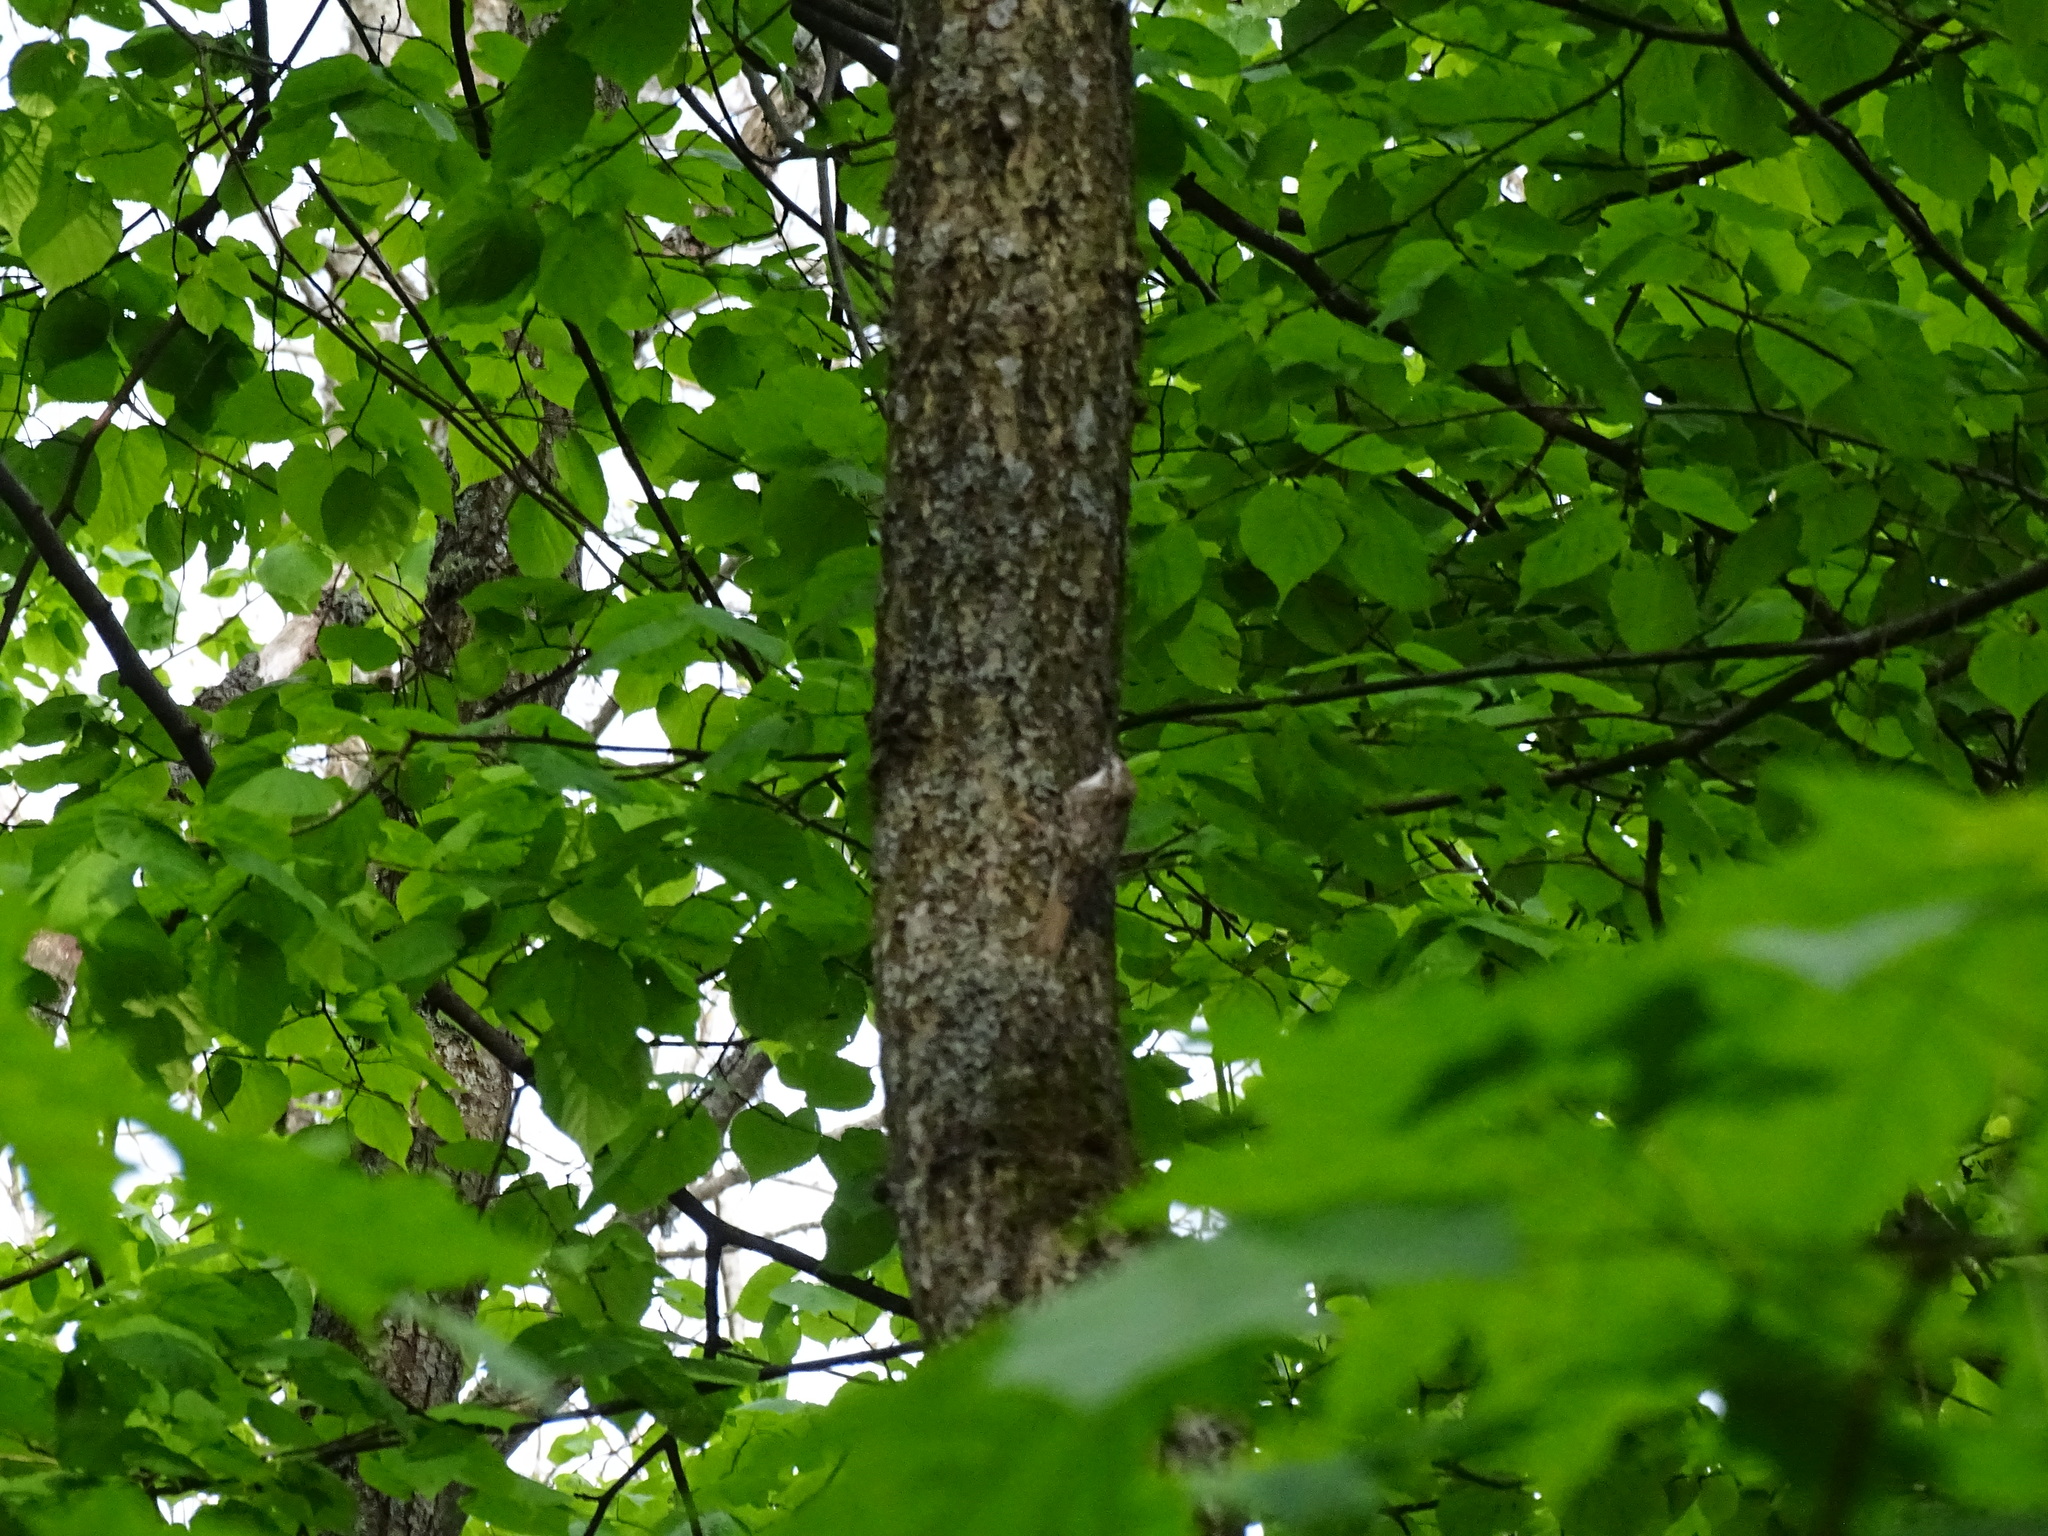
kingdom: Animalia
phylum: Chordata
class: Aves
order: Passeriformes
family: Certhiidae
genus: Certhia
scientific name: Certhia familiaris
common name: Eurasian treecreeper
